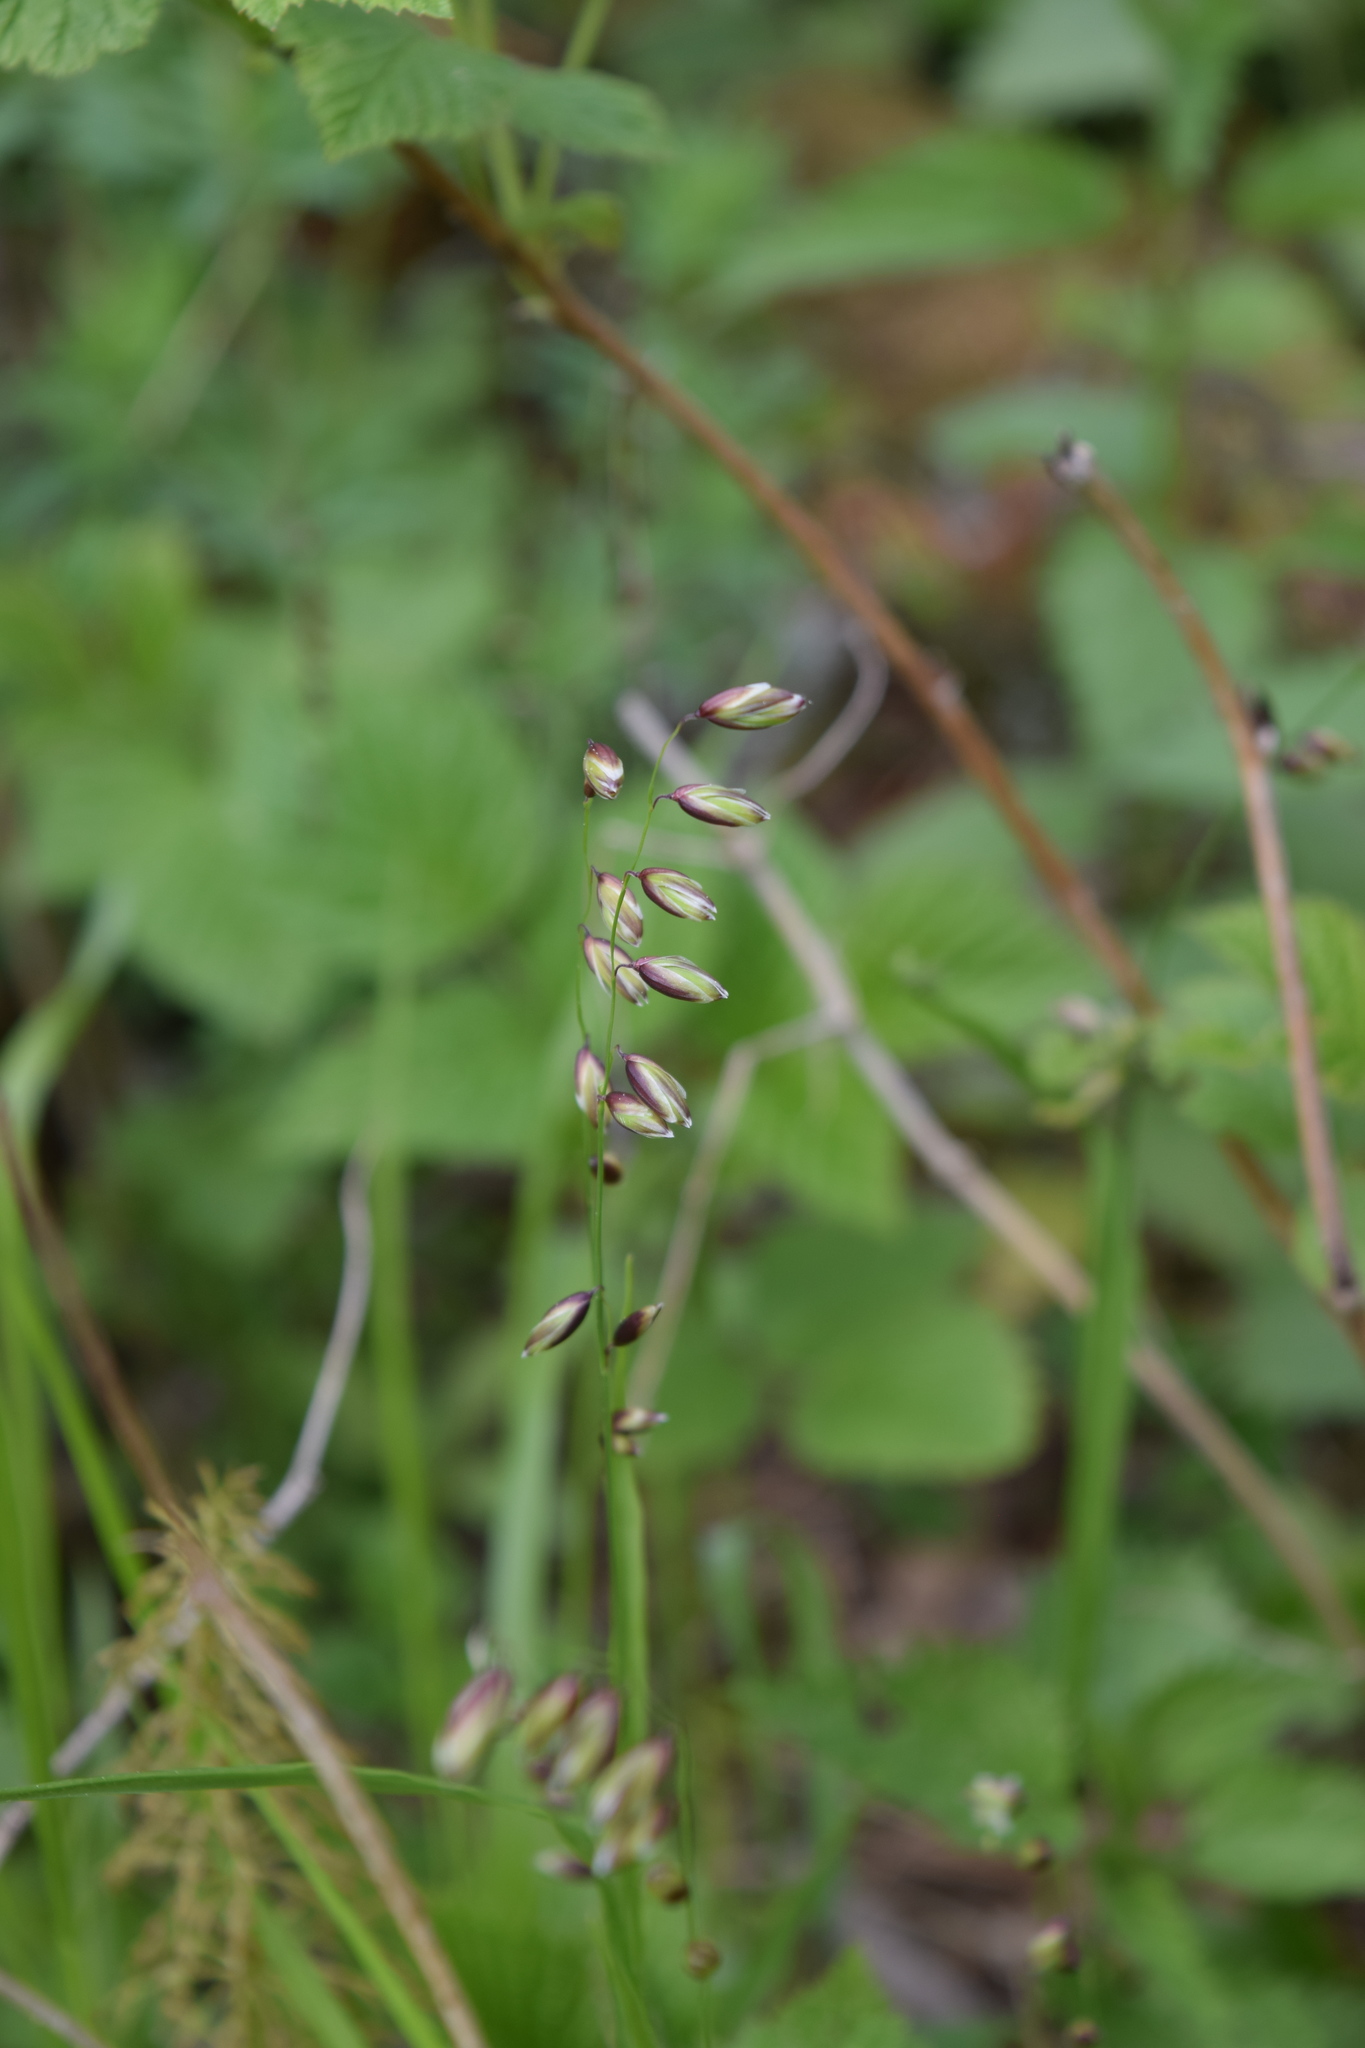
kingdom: Plantae
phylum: Tracheophyta
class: Liliopsida
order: Poales
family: Poaceae
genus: Melica
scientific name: Melica nutans
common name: Mountain melick
